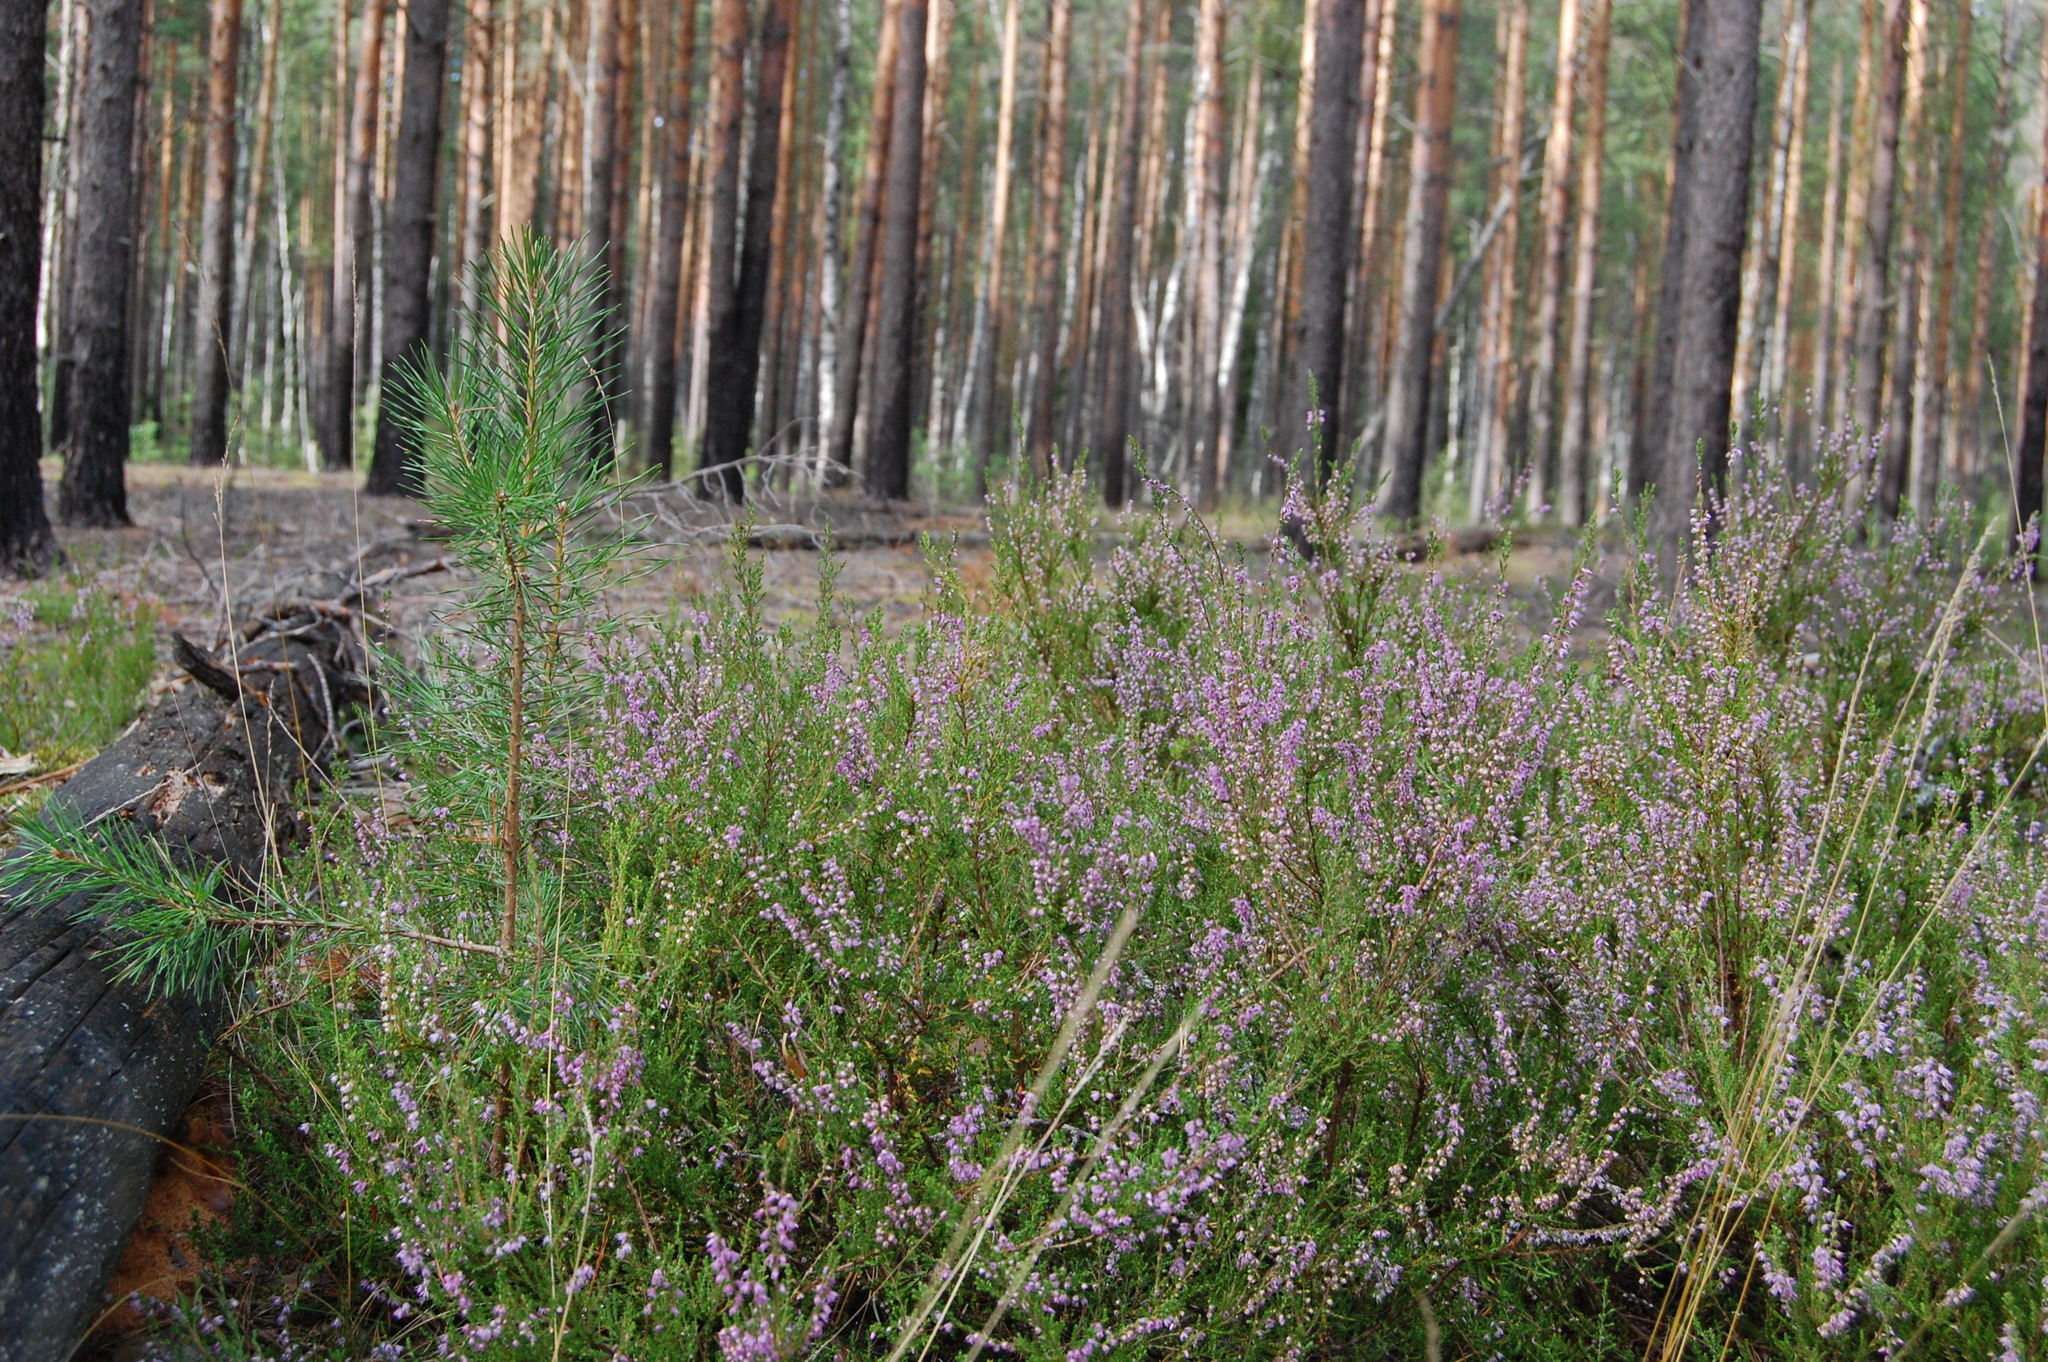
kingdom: Plantae
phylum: Tracheophyta
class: Magnoliopsida
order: Ericales
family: Ericaceae
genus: Calluna
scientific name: Calluna vulgaris
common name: Heather
